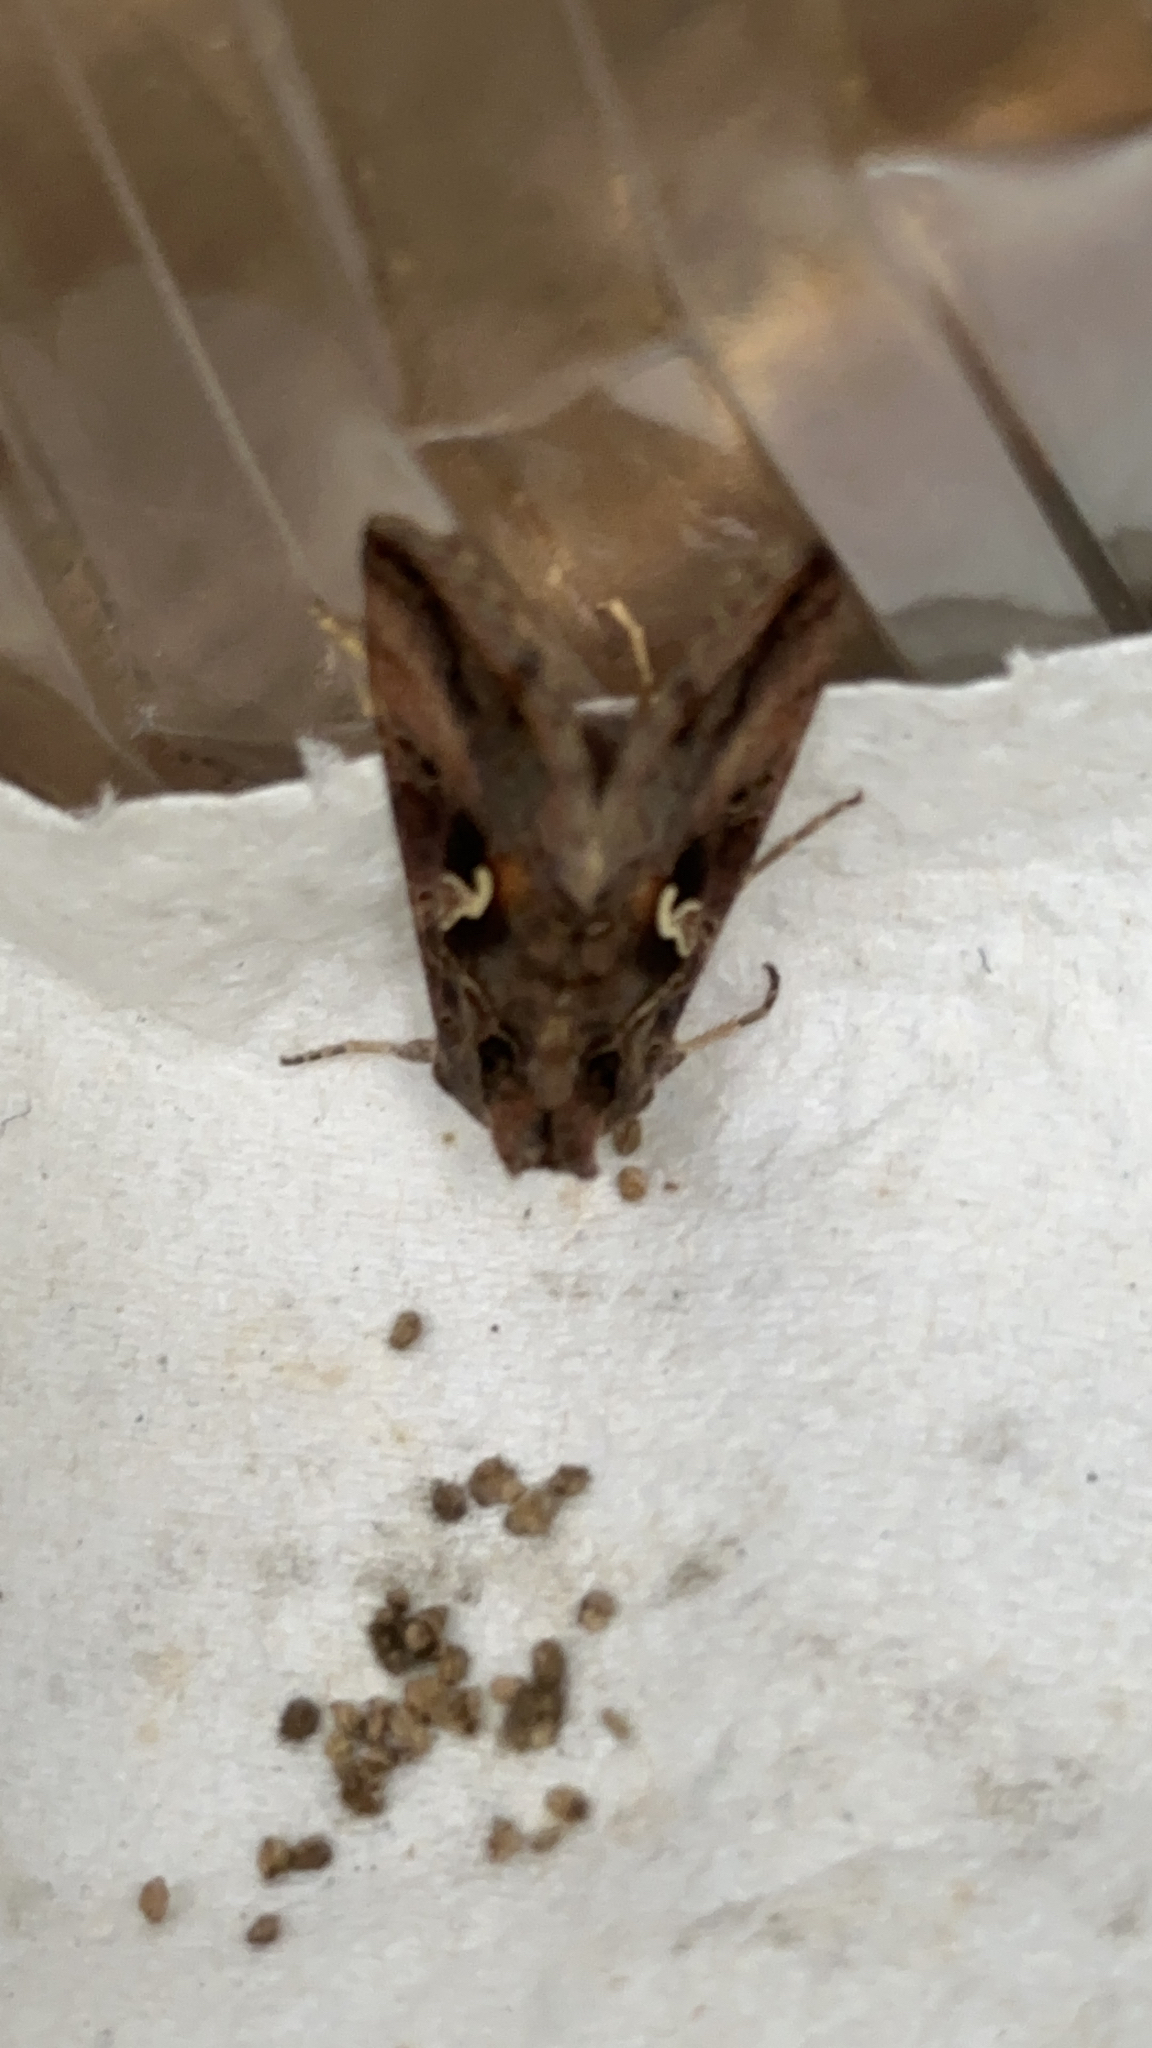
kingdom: Animalia
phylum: Arthropoda
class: Insecta
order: Lepidoptera
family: Noctuidae
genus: Autographa
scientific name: Autographa gamma
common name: Silver y
